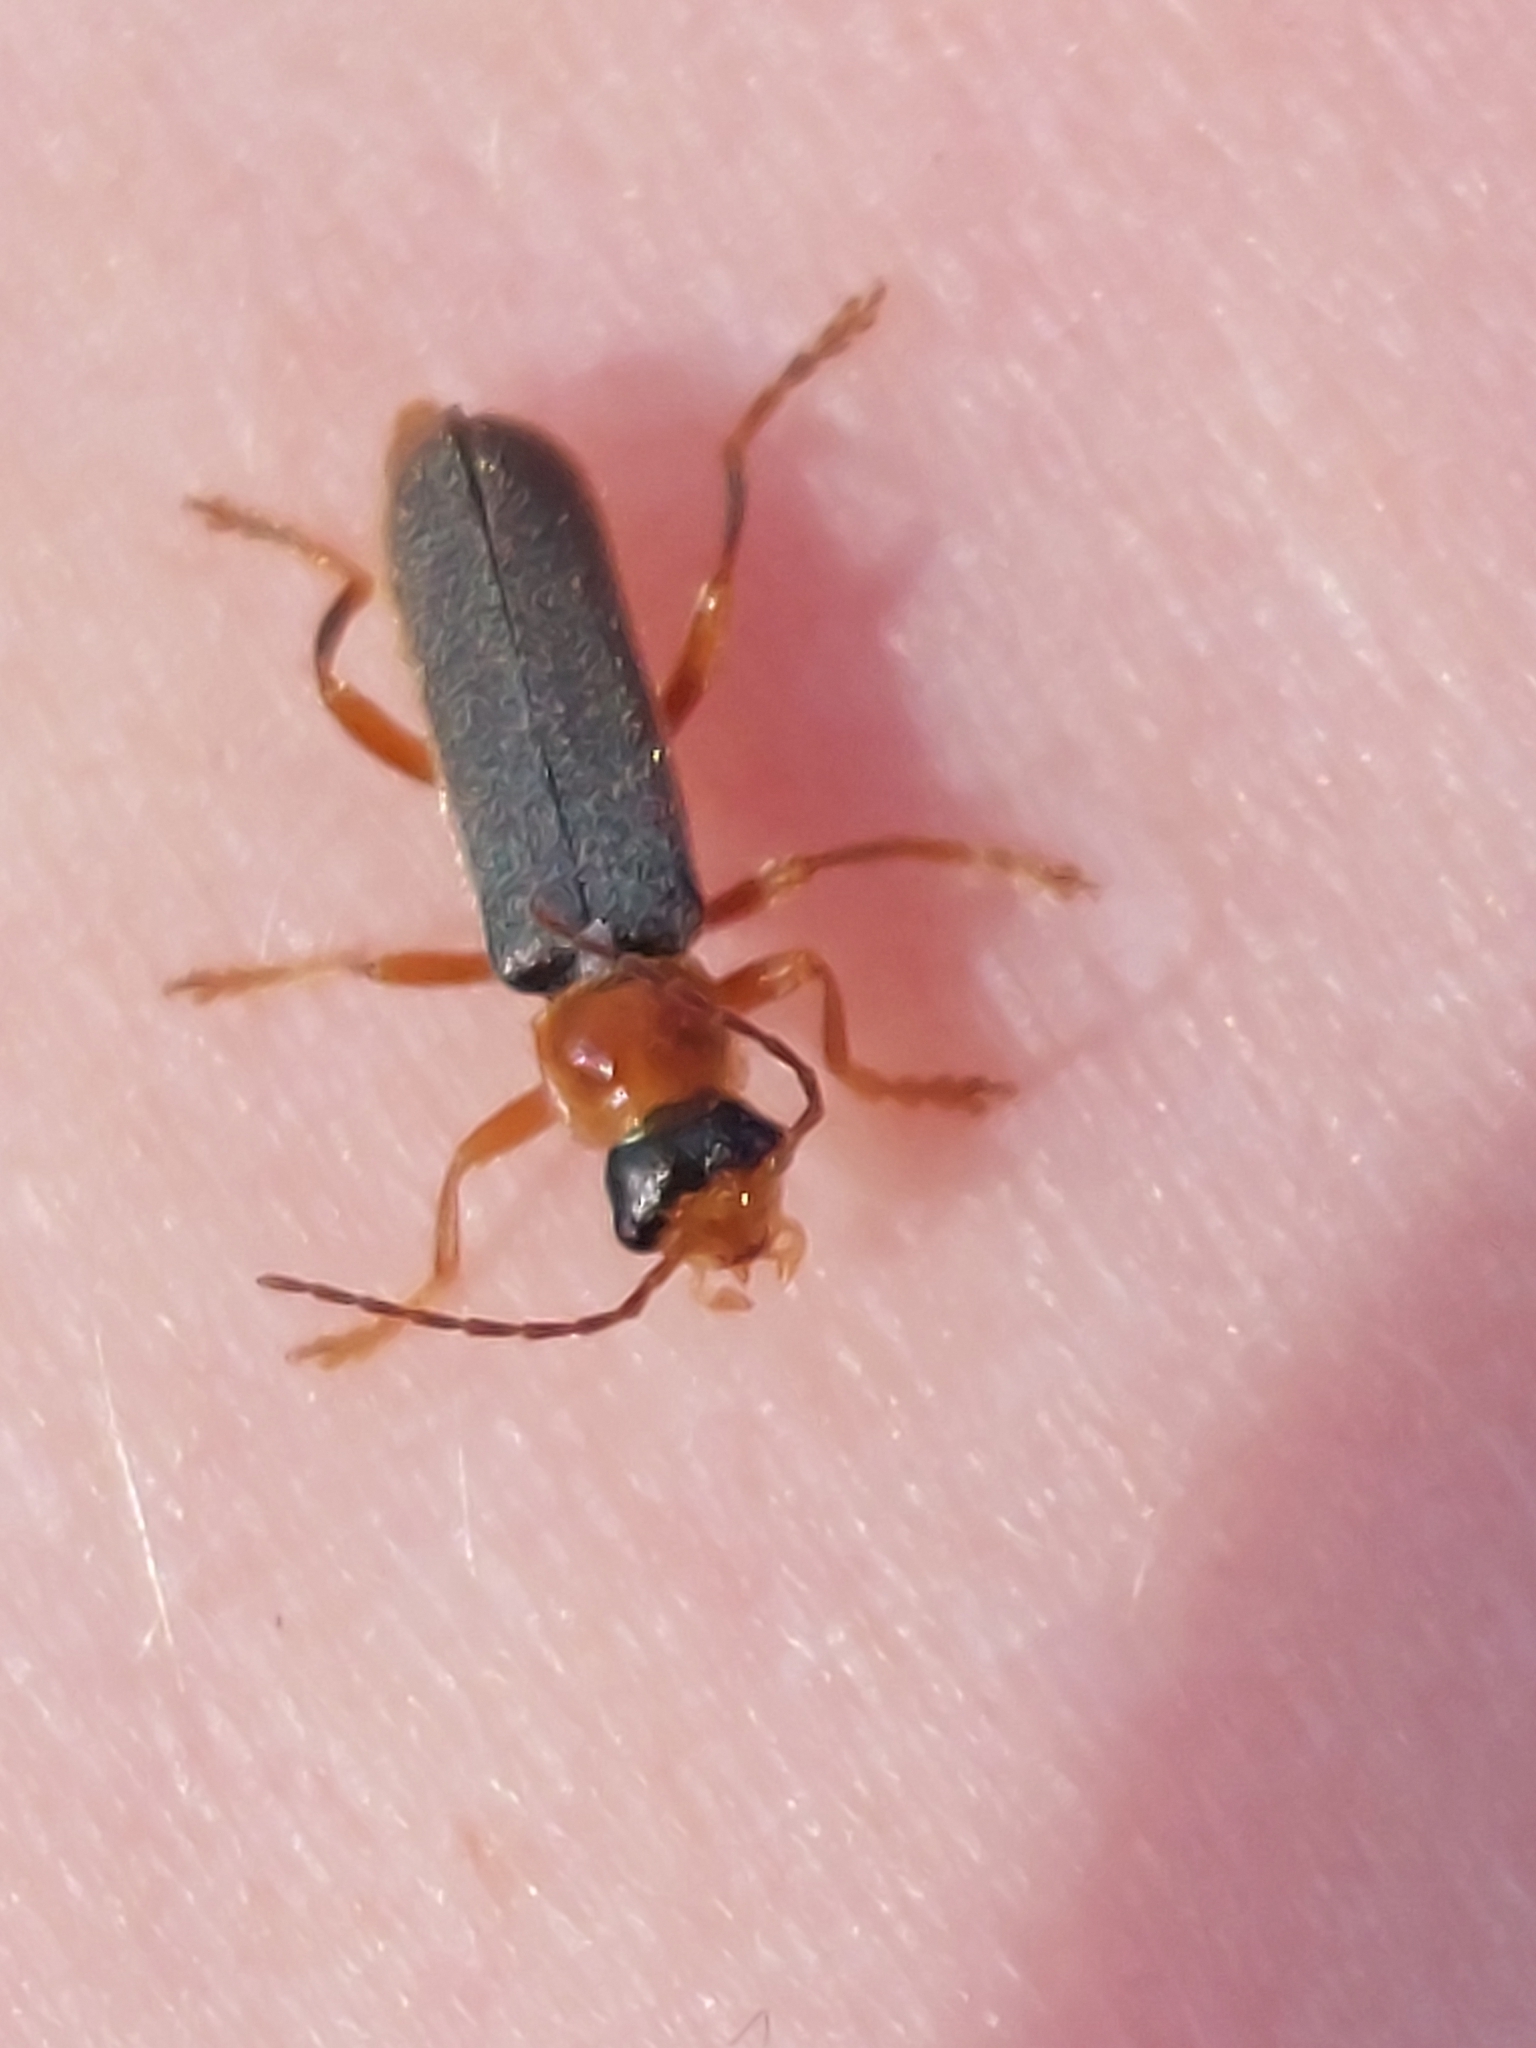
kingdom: Animalia
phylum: Arthropoda
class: Insecta
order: Coleoptera
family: Cantharidae
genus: Cantharis
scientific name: Cantharis lateralis
